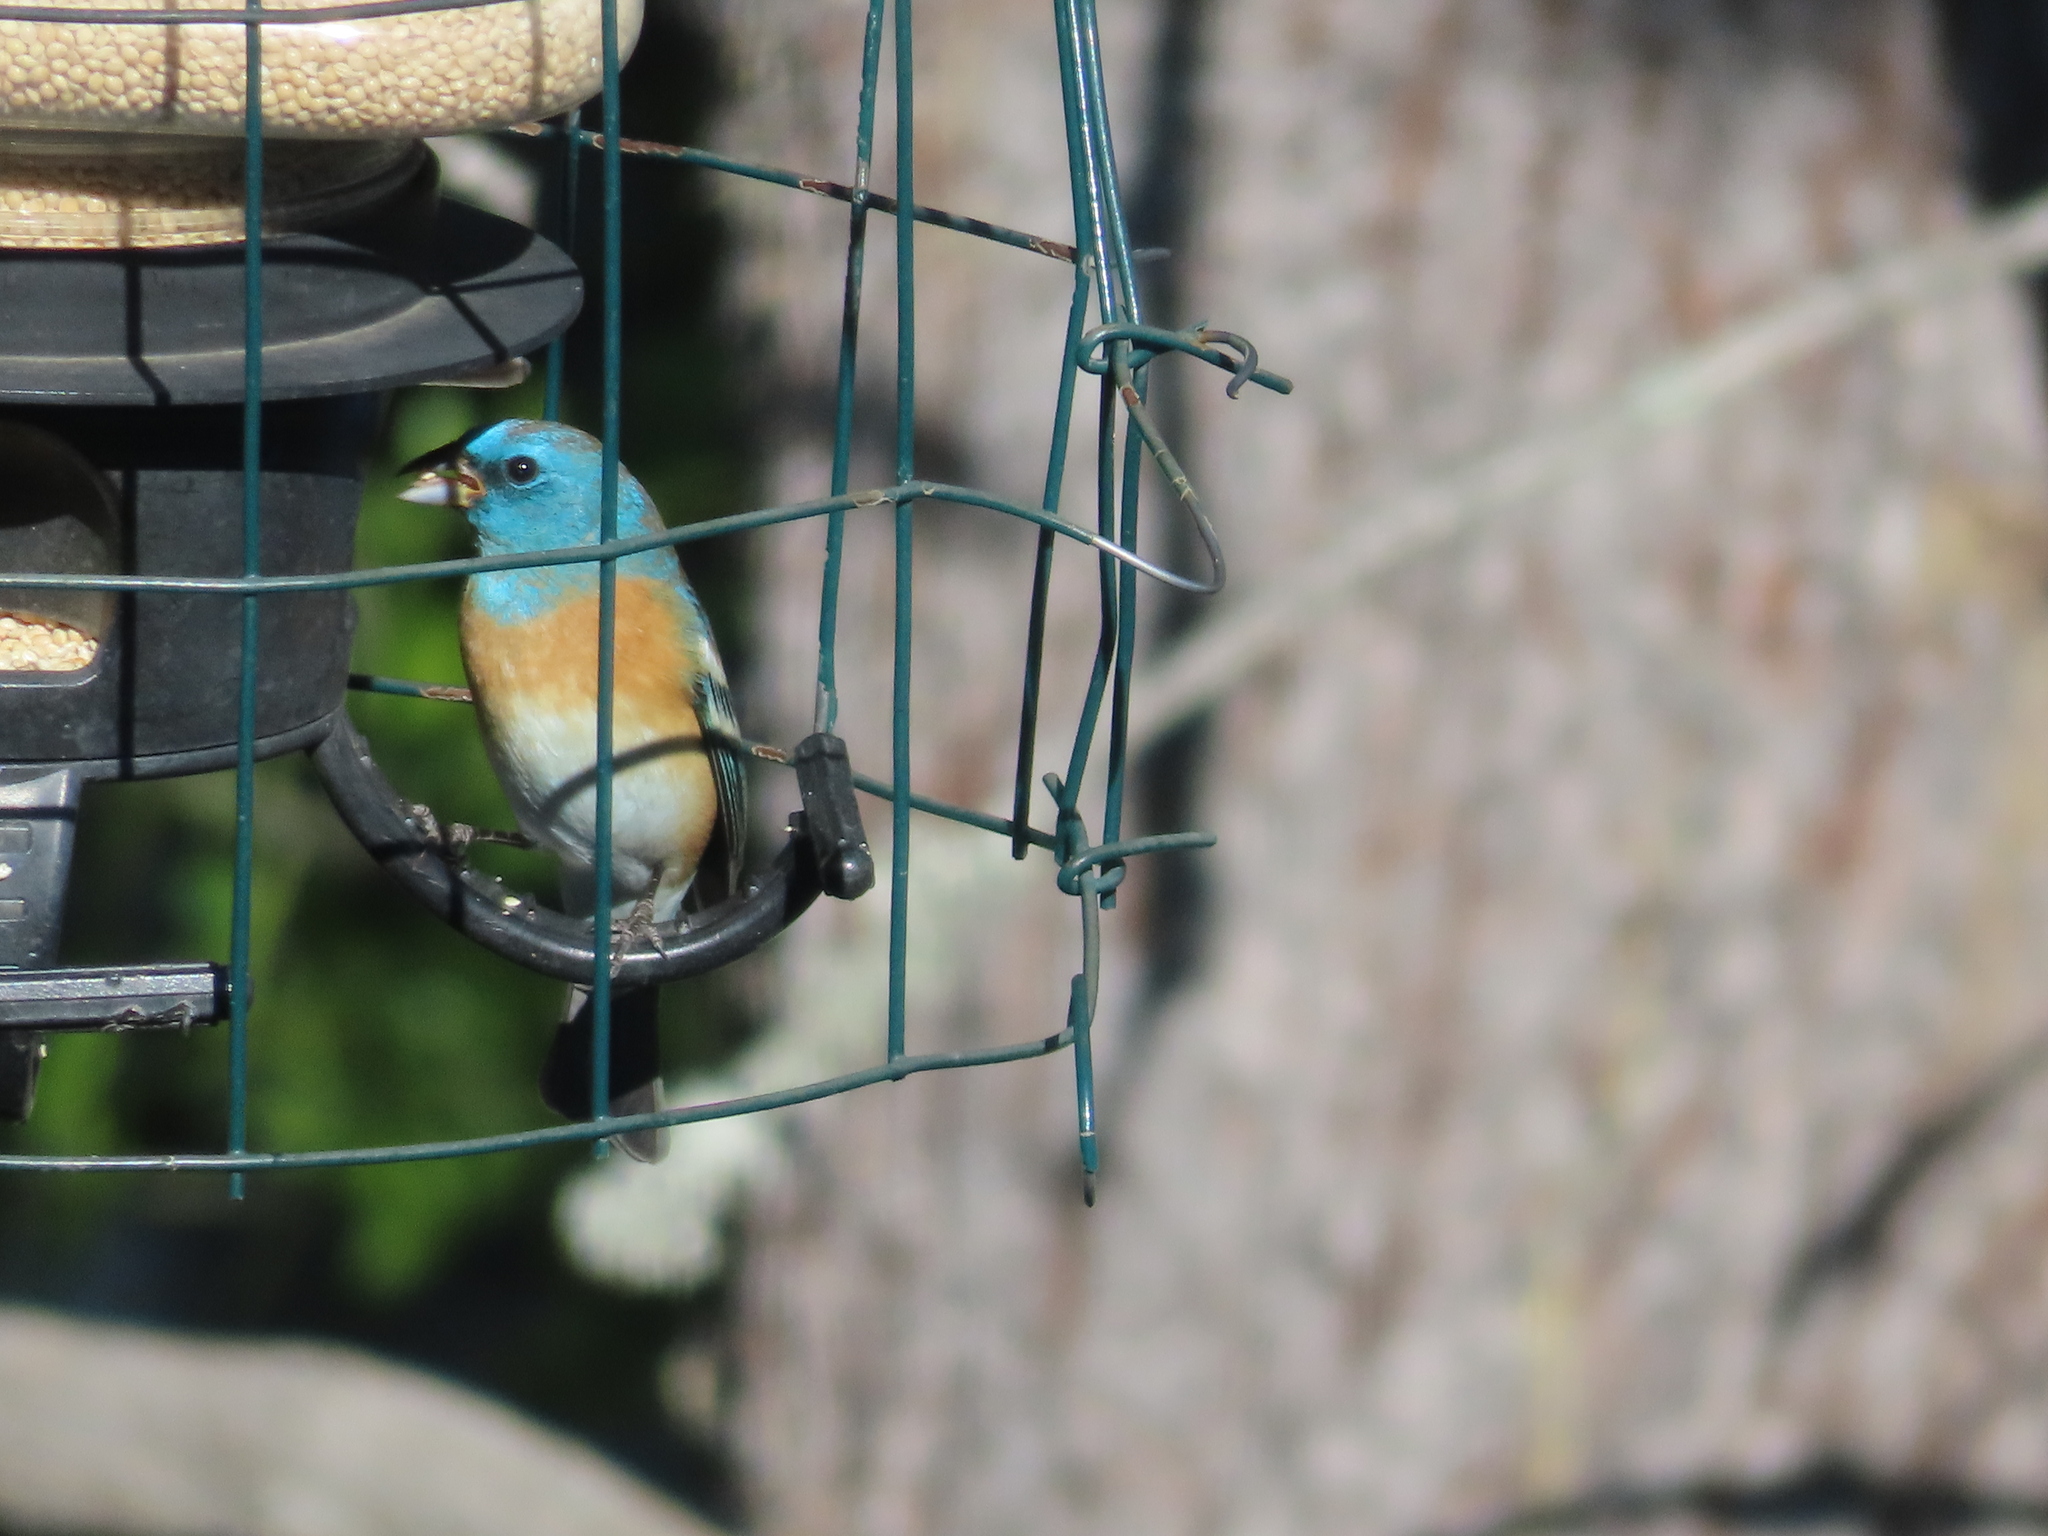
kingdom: Animalia
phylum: Chordata
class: Aves
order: Passeriformes
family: Cardinalidae
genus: Passerina
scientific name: Passerina amoena
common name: Lazuli bunting
